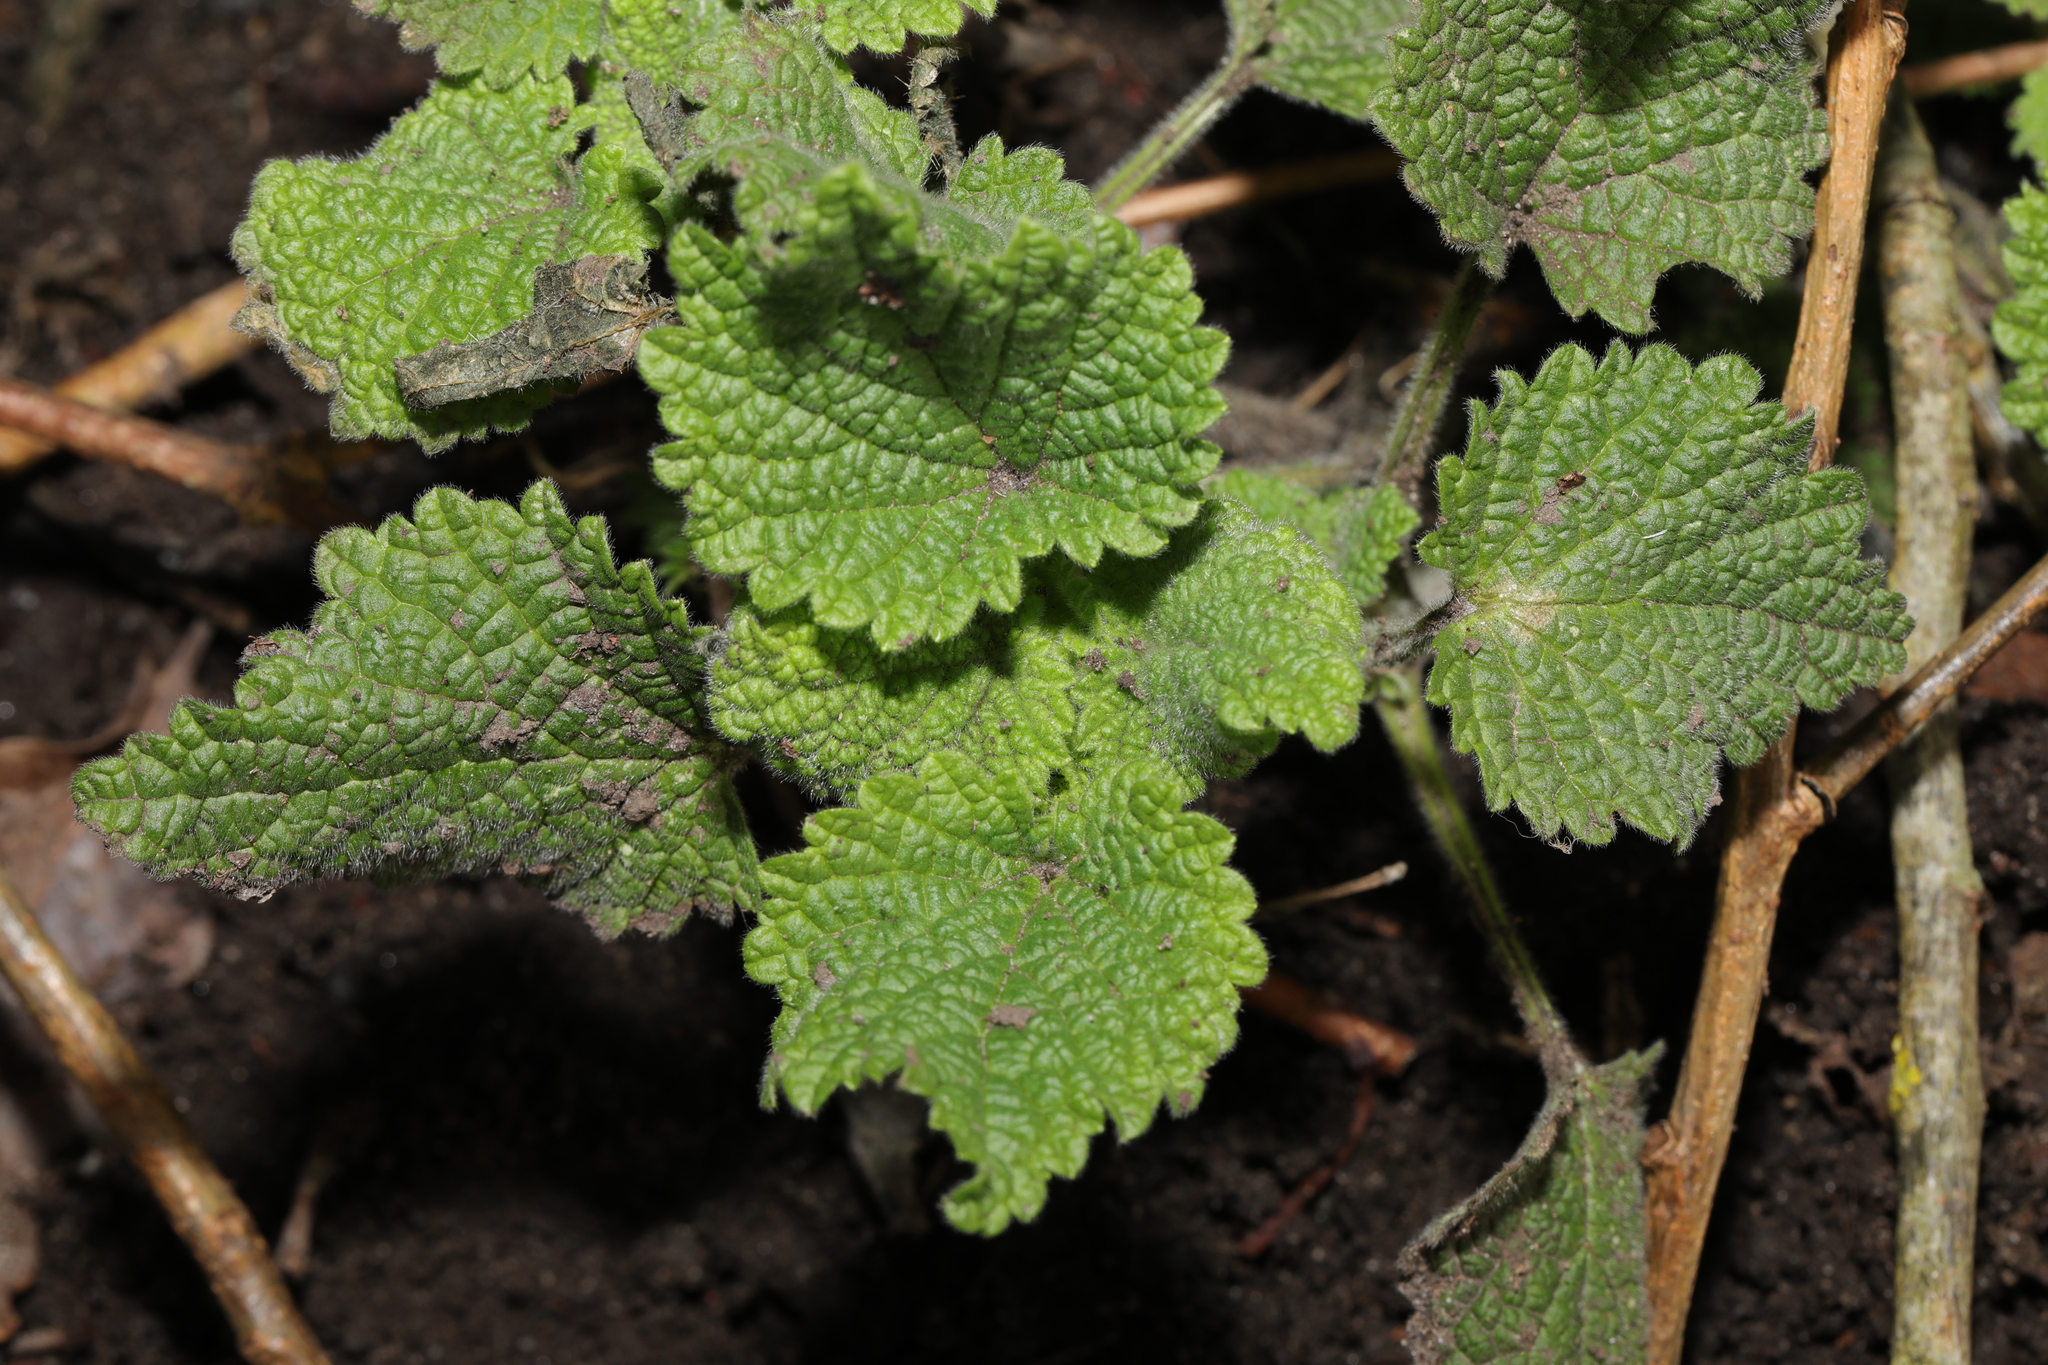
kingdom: Plantae
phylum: Tracheophyta
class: Magnoliopsida
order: Lamiales
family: Lamiaceae
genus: Ballota
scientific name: Ballota nigra
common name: Black horehound
